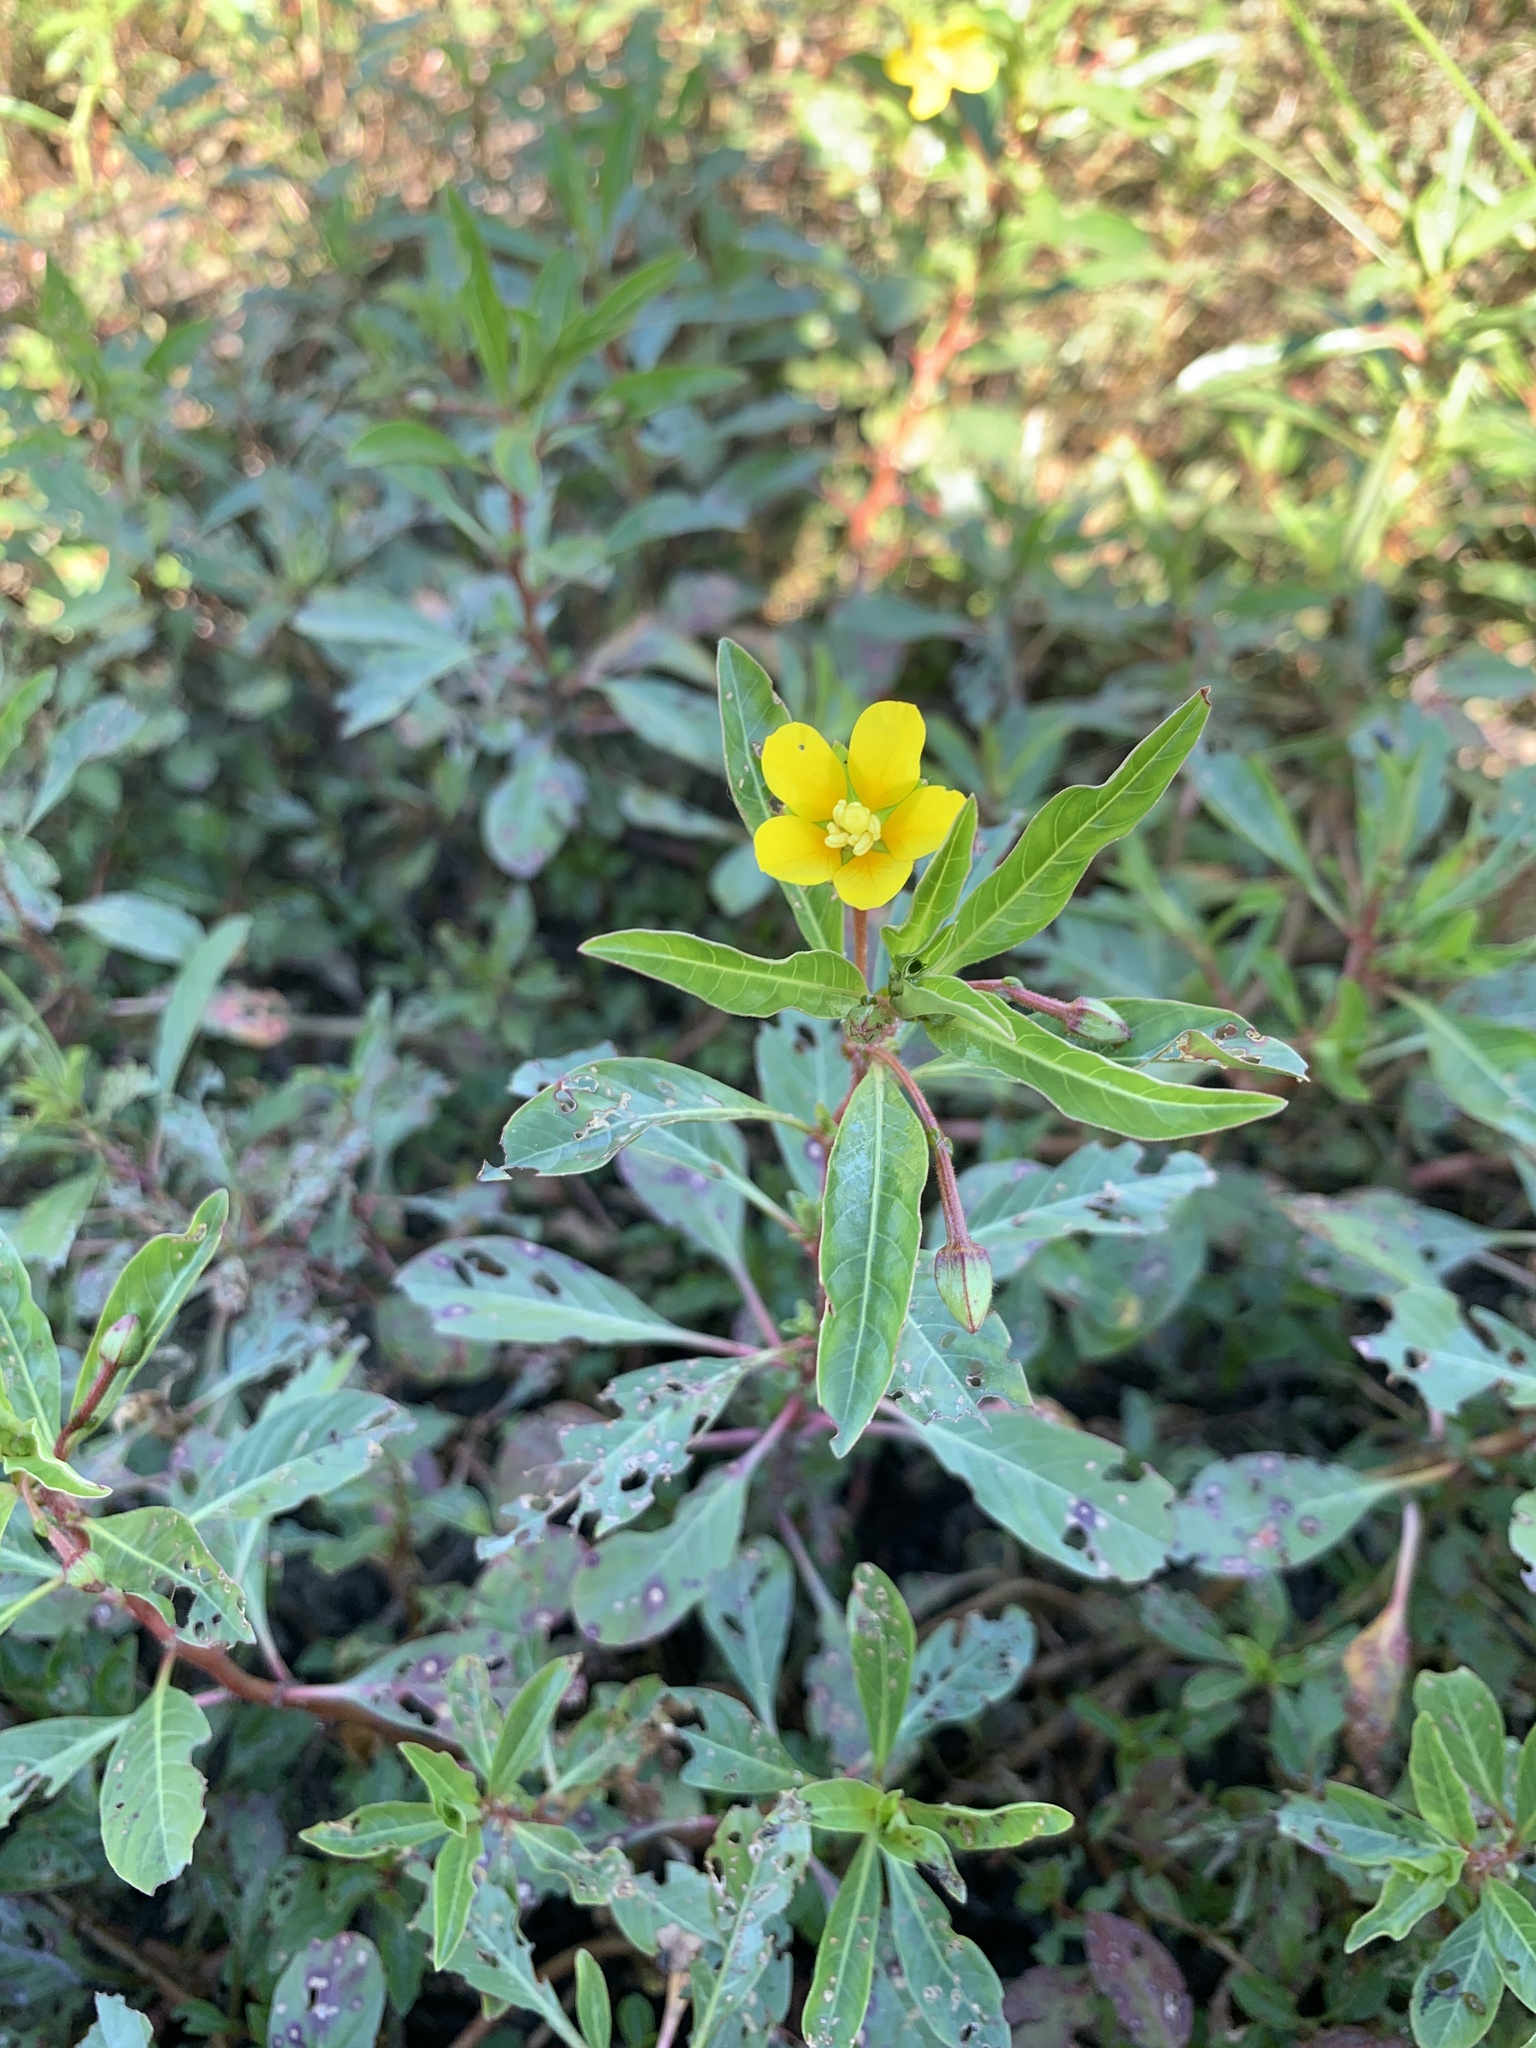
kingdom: Plantae
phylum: Tracheophyta
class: Magnoliopsida
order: Myrtales
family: Onagraceae
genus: Ludwigia
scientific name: Ludwigia peploides
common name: Floating primrose-willow
